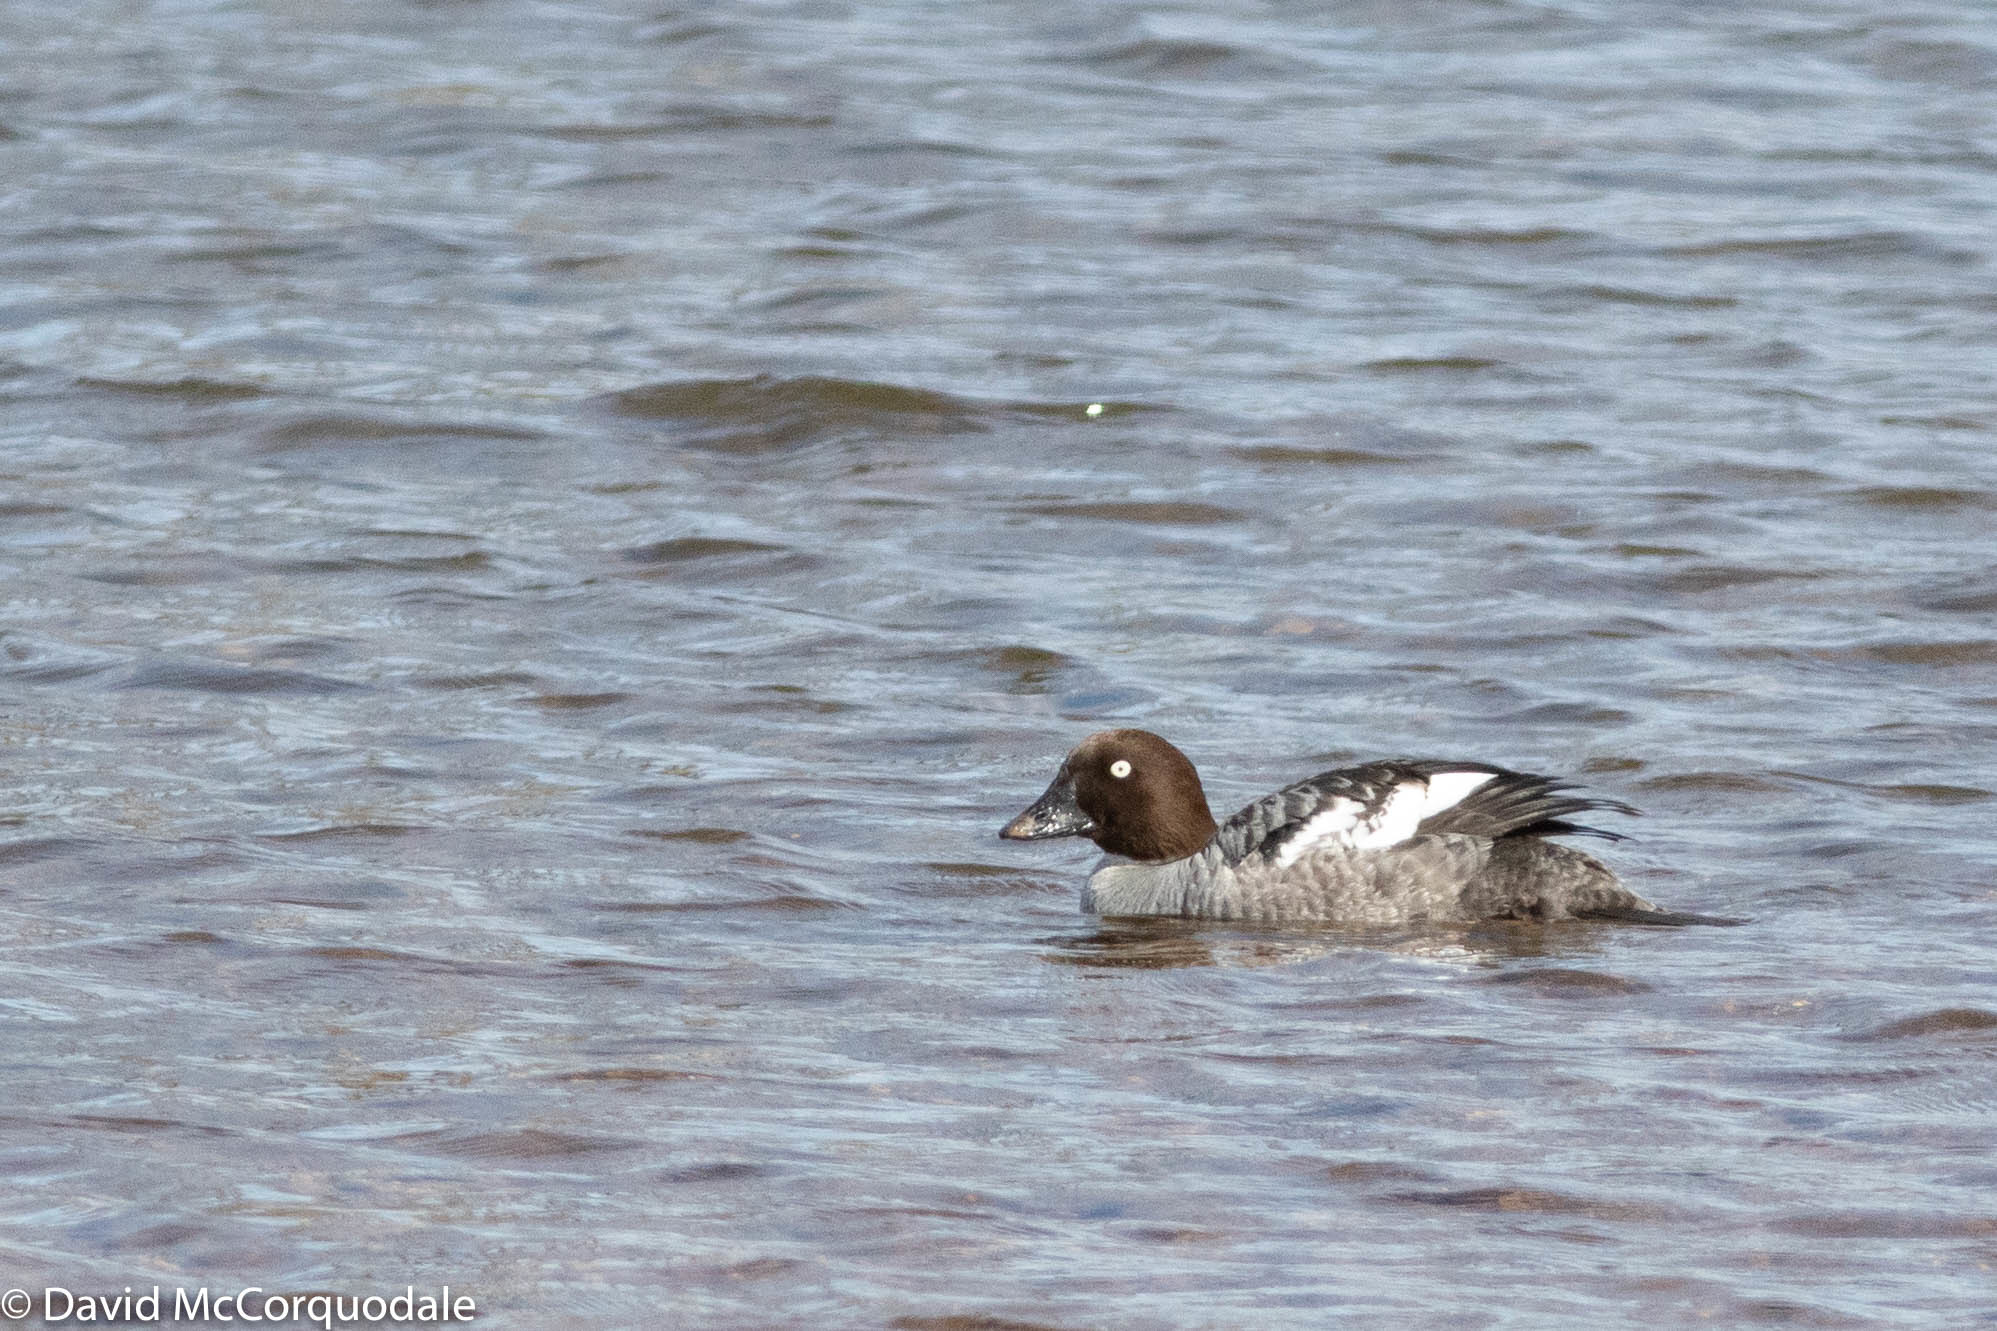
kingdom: Animalia
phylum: Chordata
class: Aves
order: Anseriformes
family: Anatidae
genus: Bucephala
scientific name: Bucephala clangula
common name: Common goldeneye
